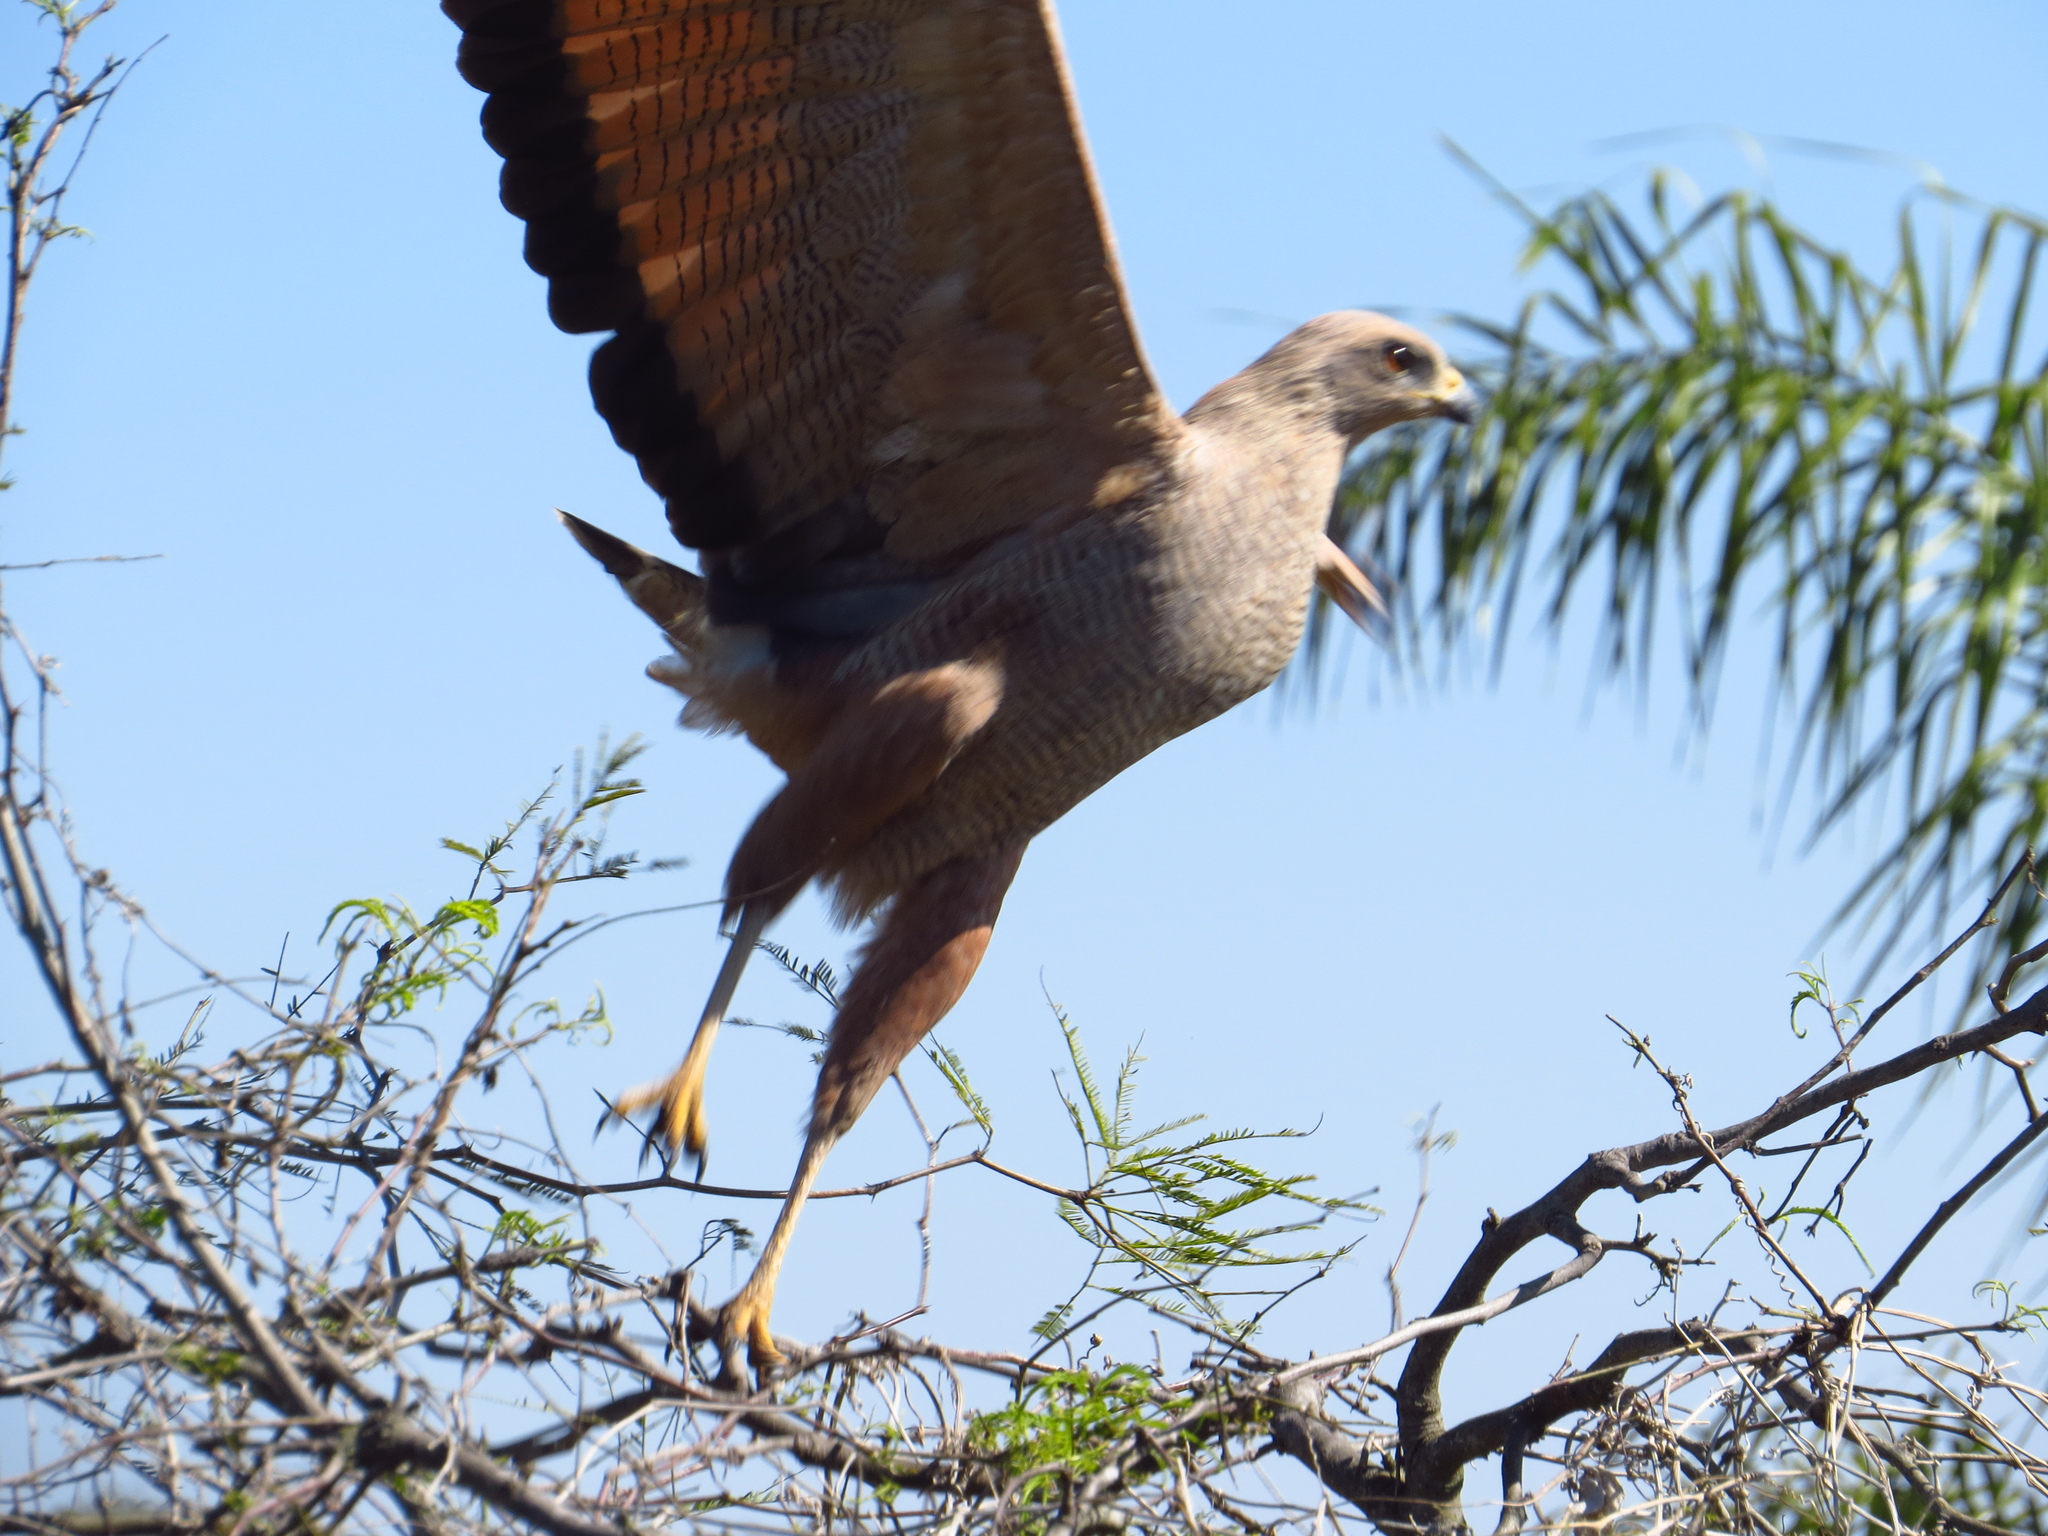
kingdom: Animalia
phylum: Chordata
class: Aves
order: Accipitriformes
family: Accipitridae
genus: Buteogallus
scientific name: Buteogallus meridionalis
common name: Savanna hawk
